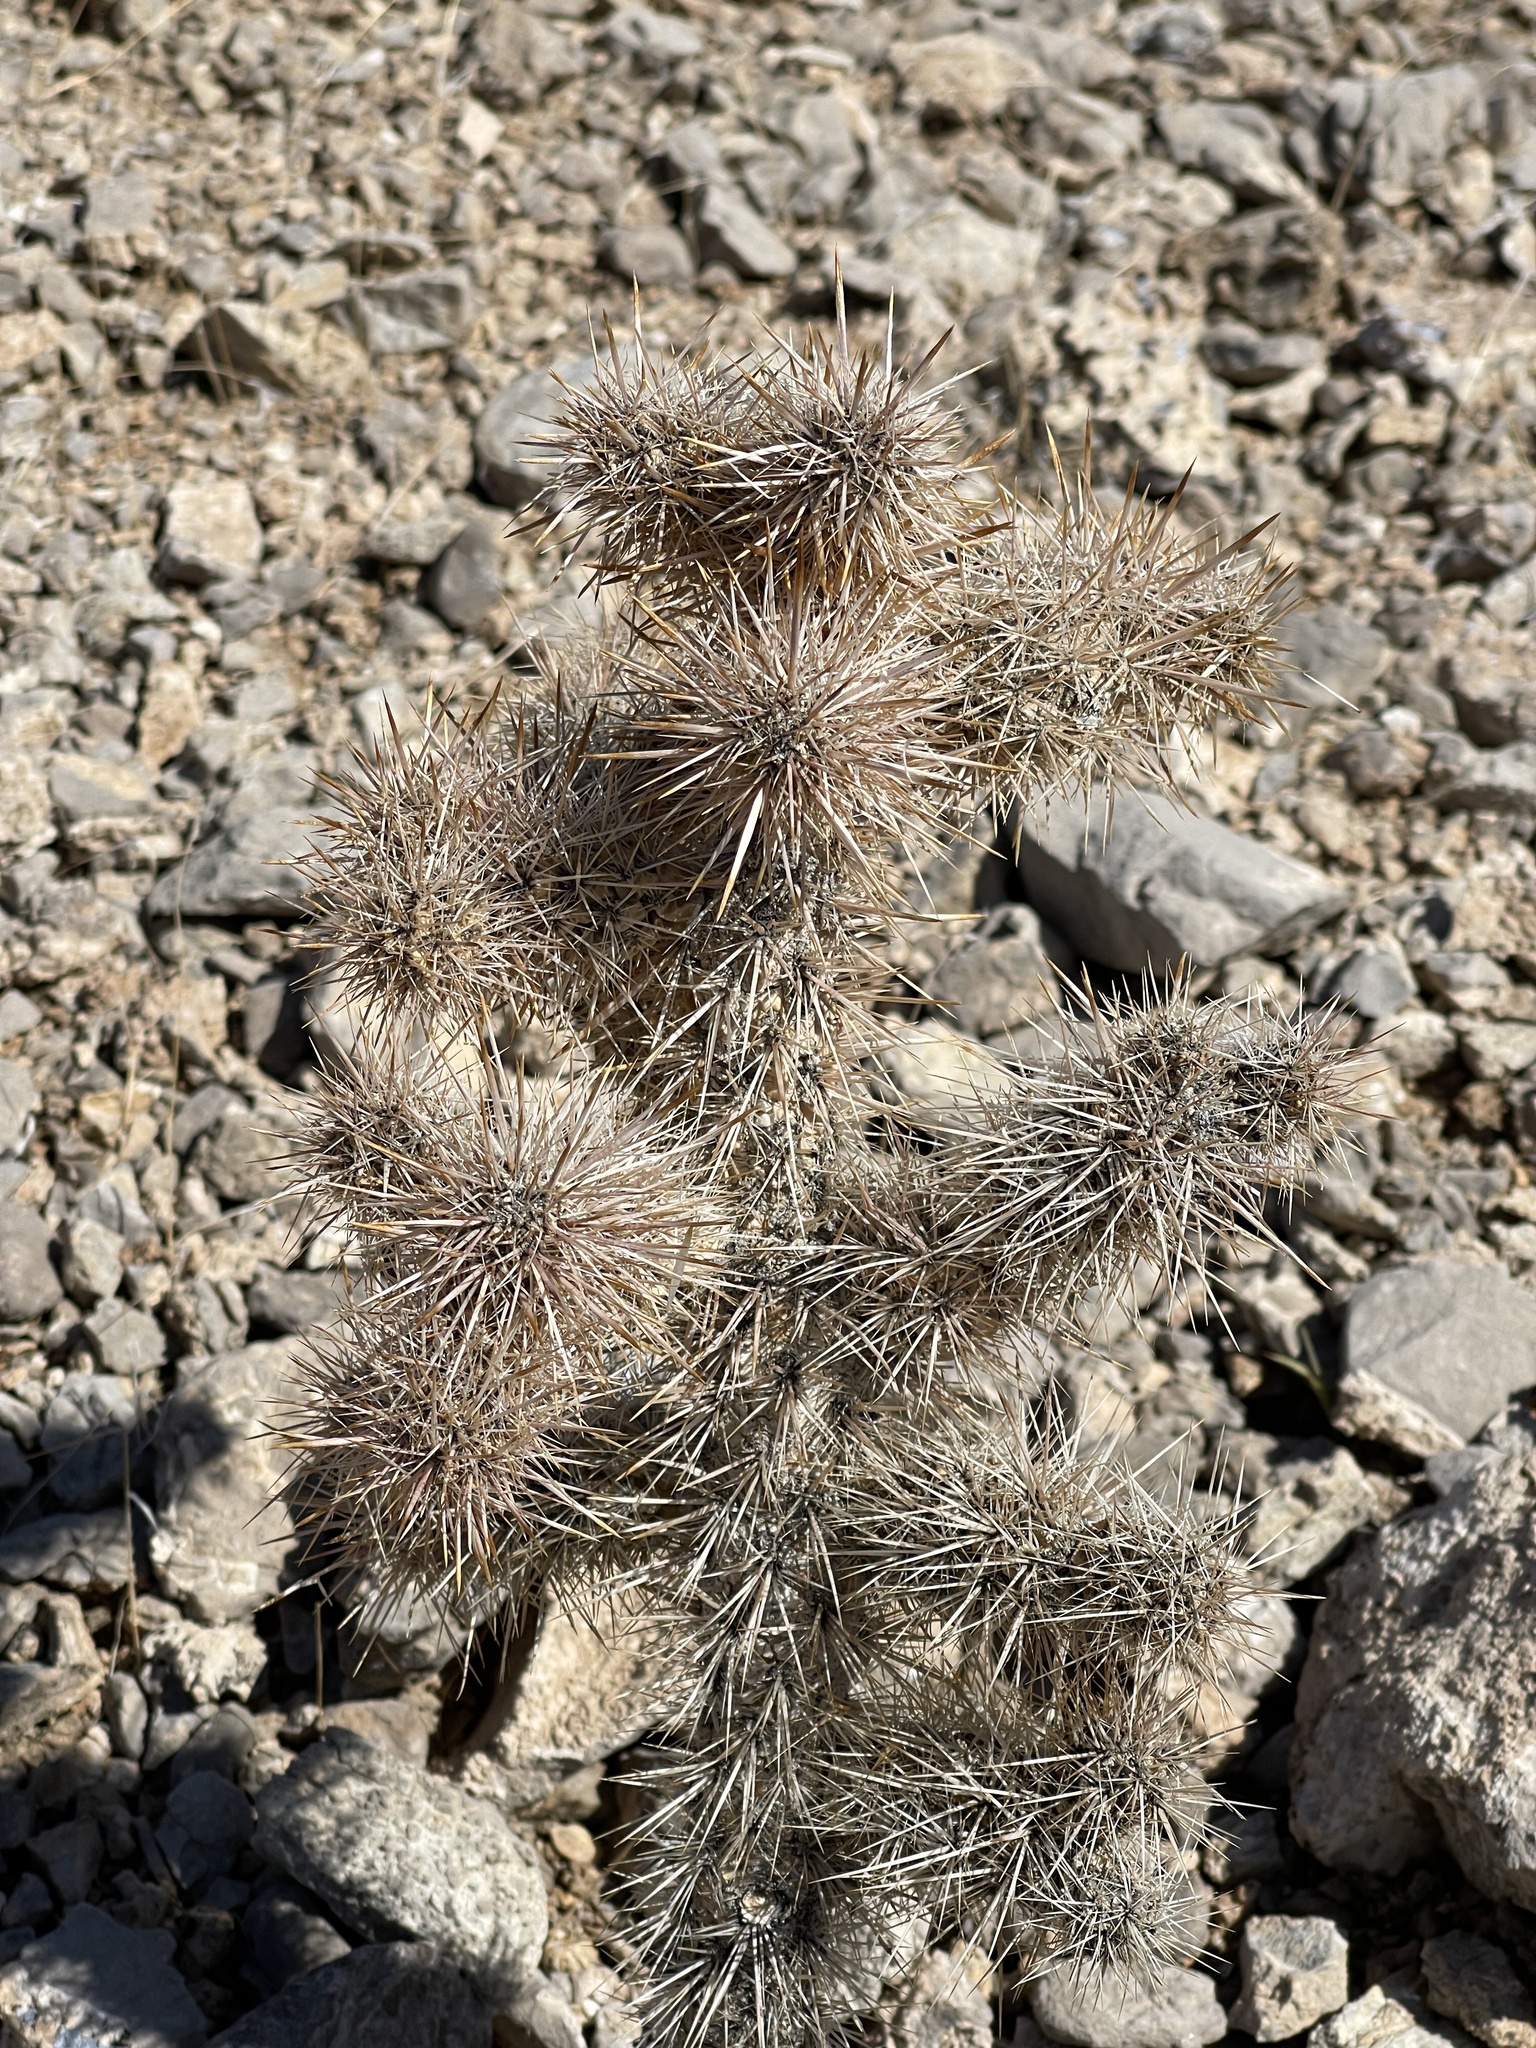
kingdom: Plantae
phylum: Tracheophyta
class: Magnoliopsida
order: Caryophyllales
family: Cactaceae
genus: Cylindropuntia
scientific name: Cylindropuntia echinocarpa
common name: Ground cholla
